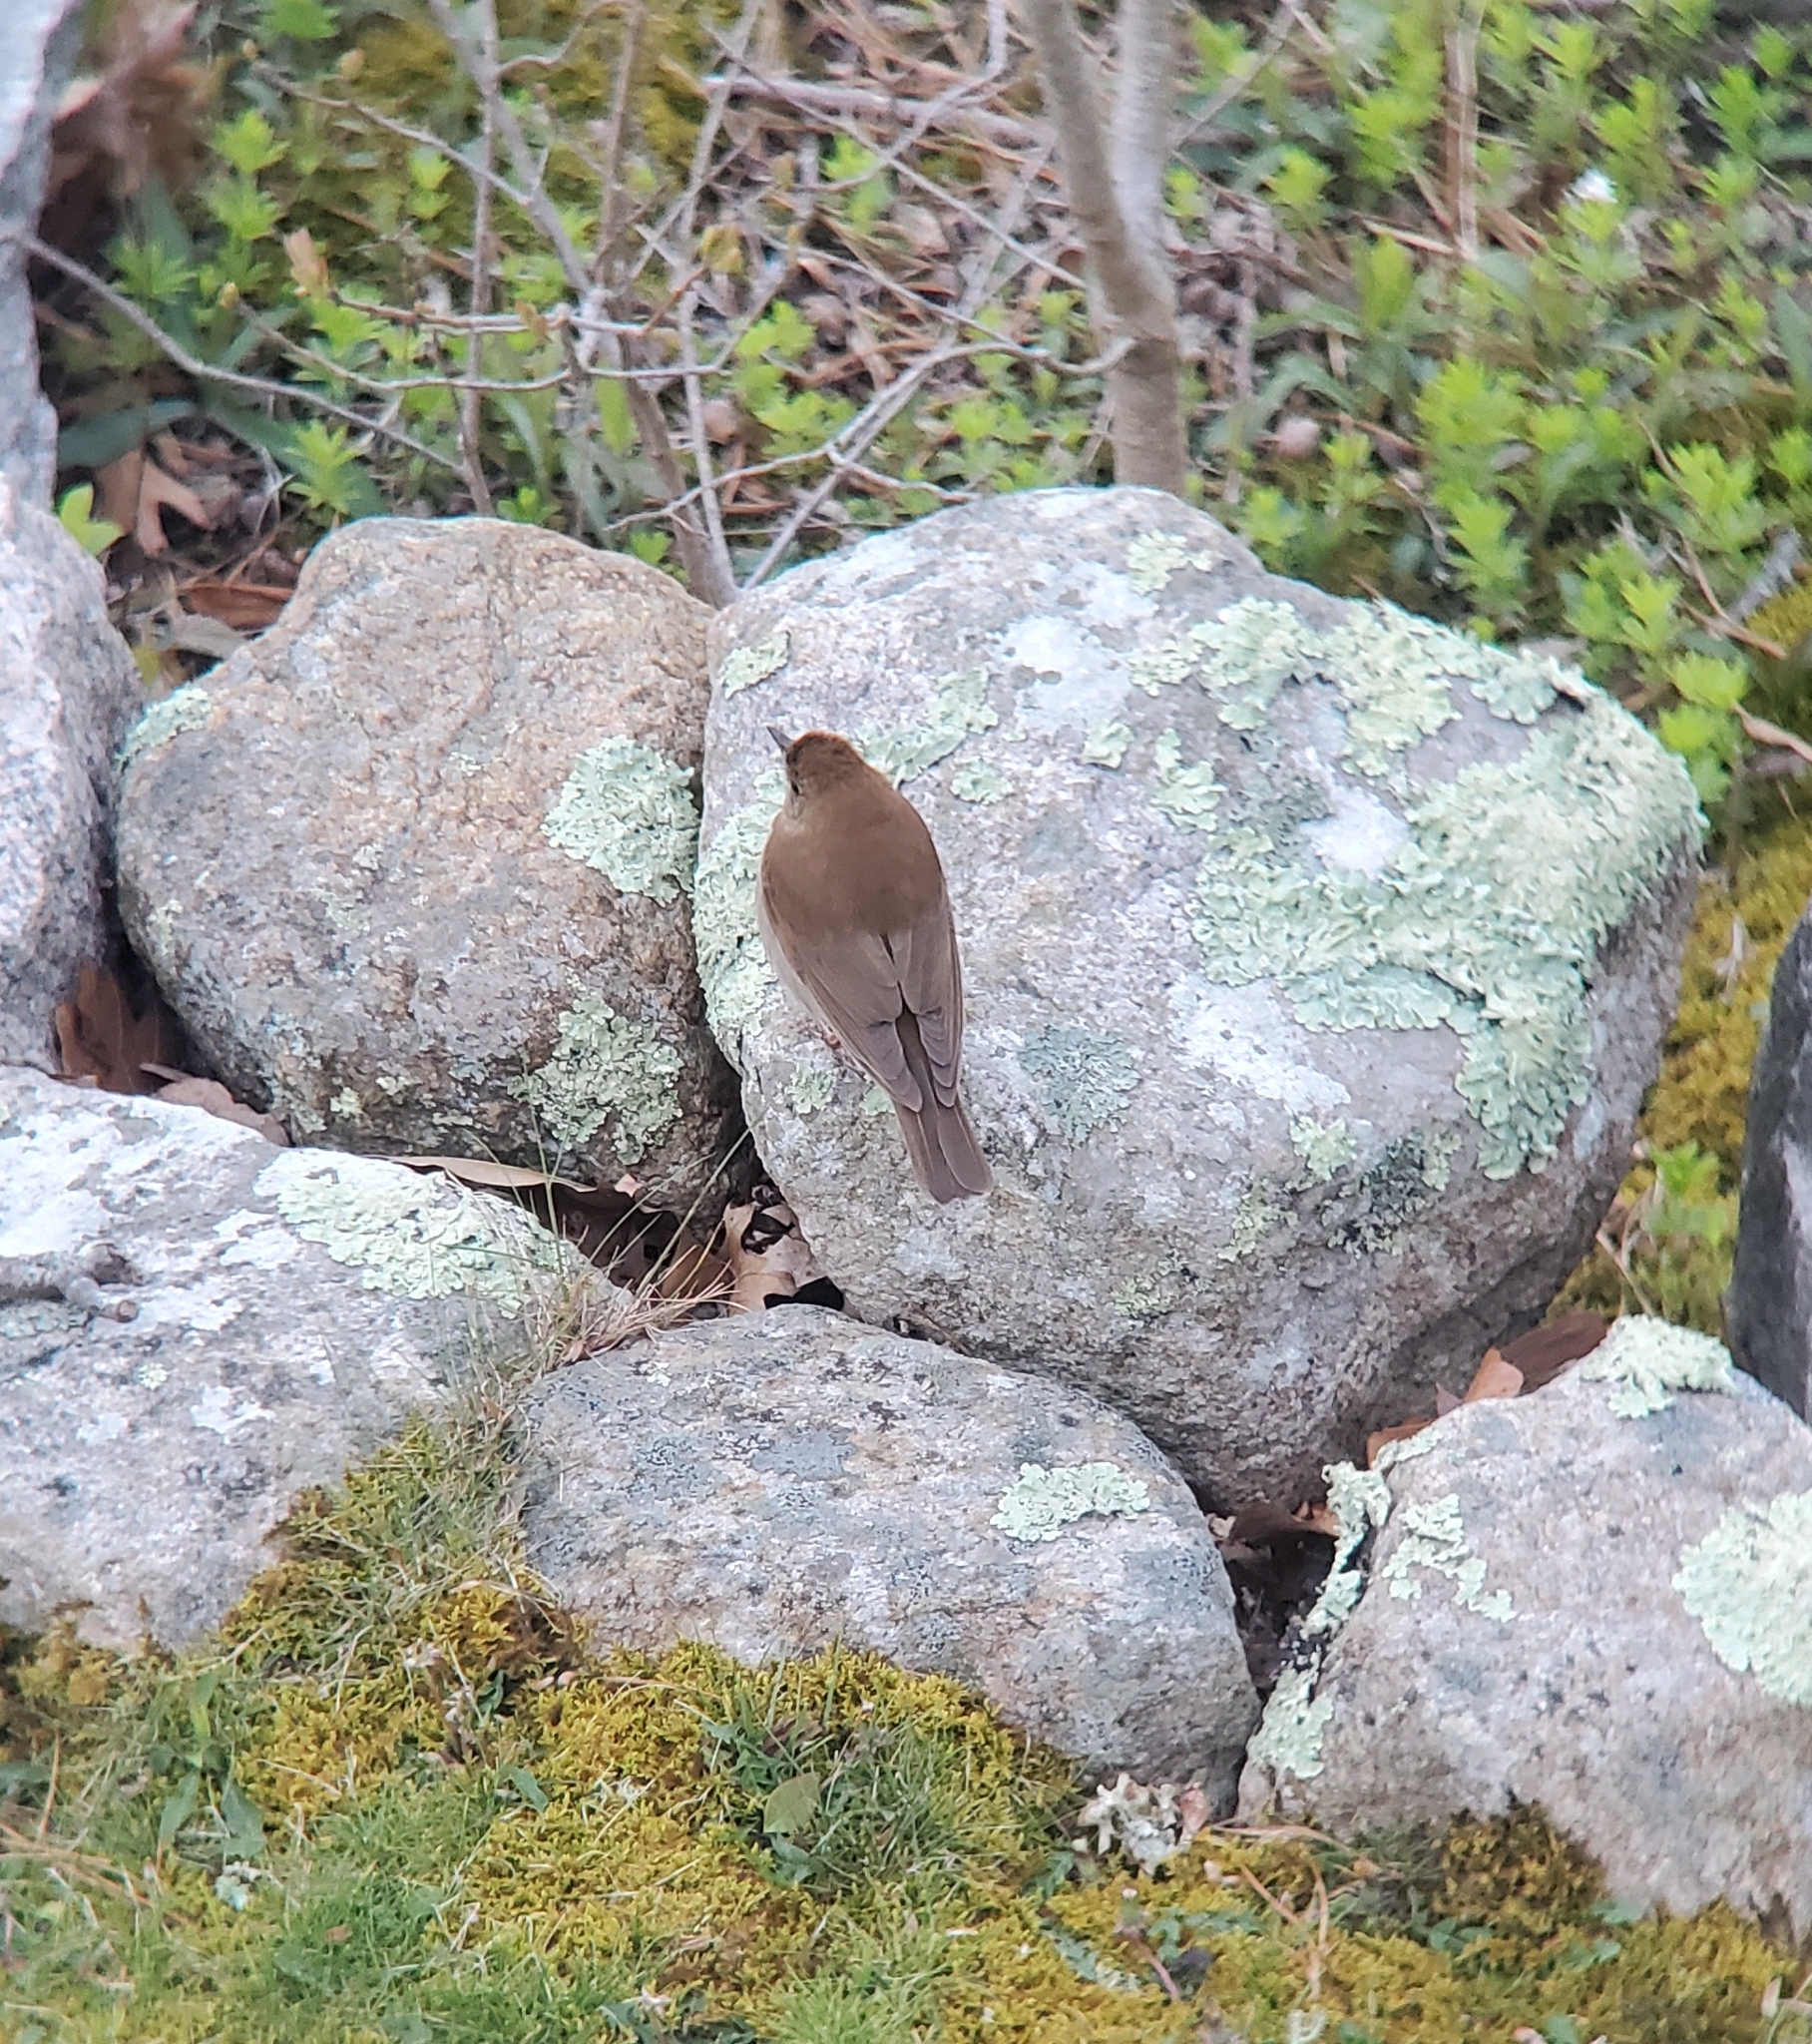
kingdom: Animalia
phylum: Chordata
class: Aves
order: Passeriformes
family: Turdidae
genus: Catharus
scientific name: Catharus fuscescens
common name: Veery
